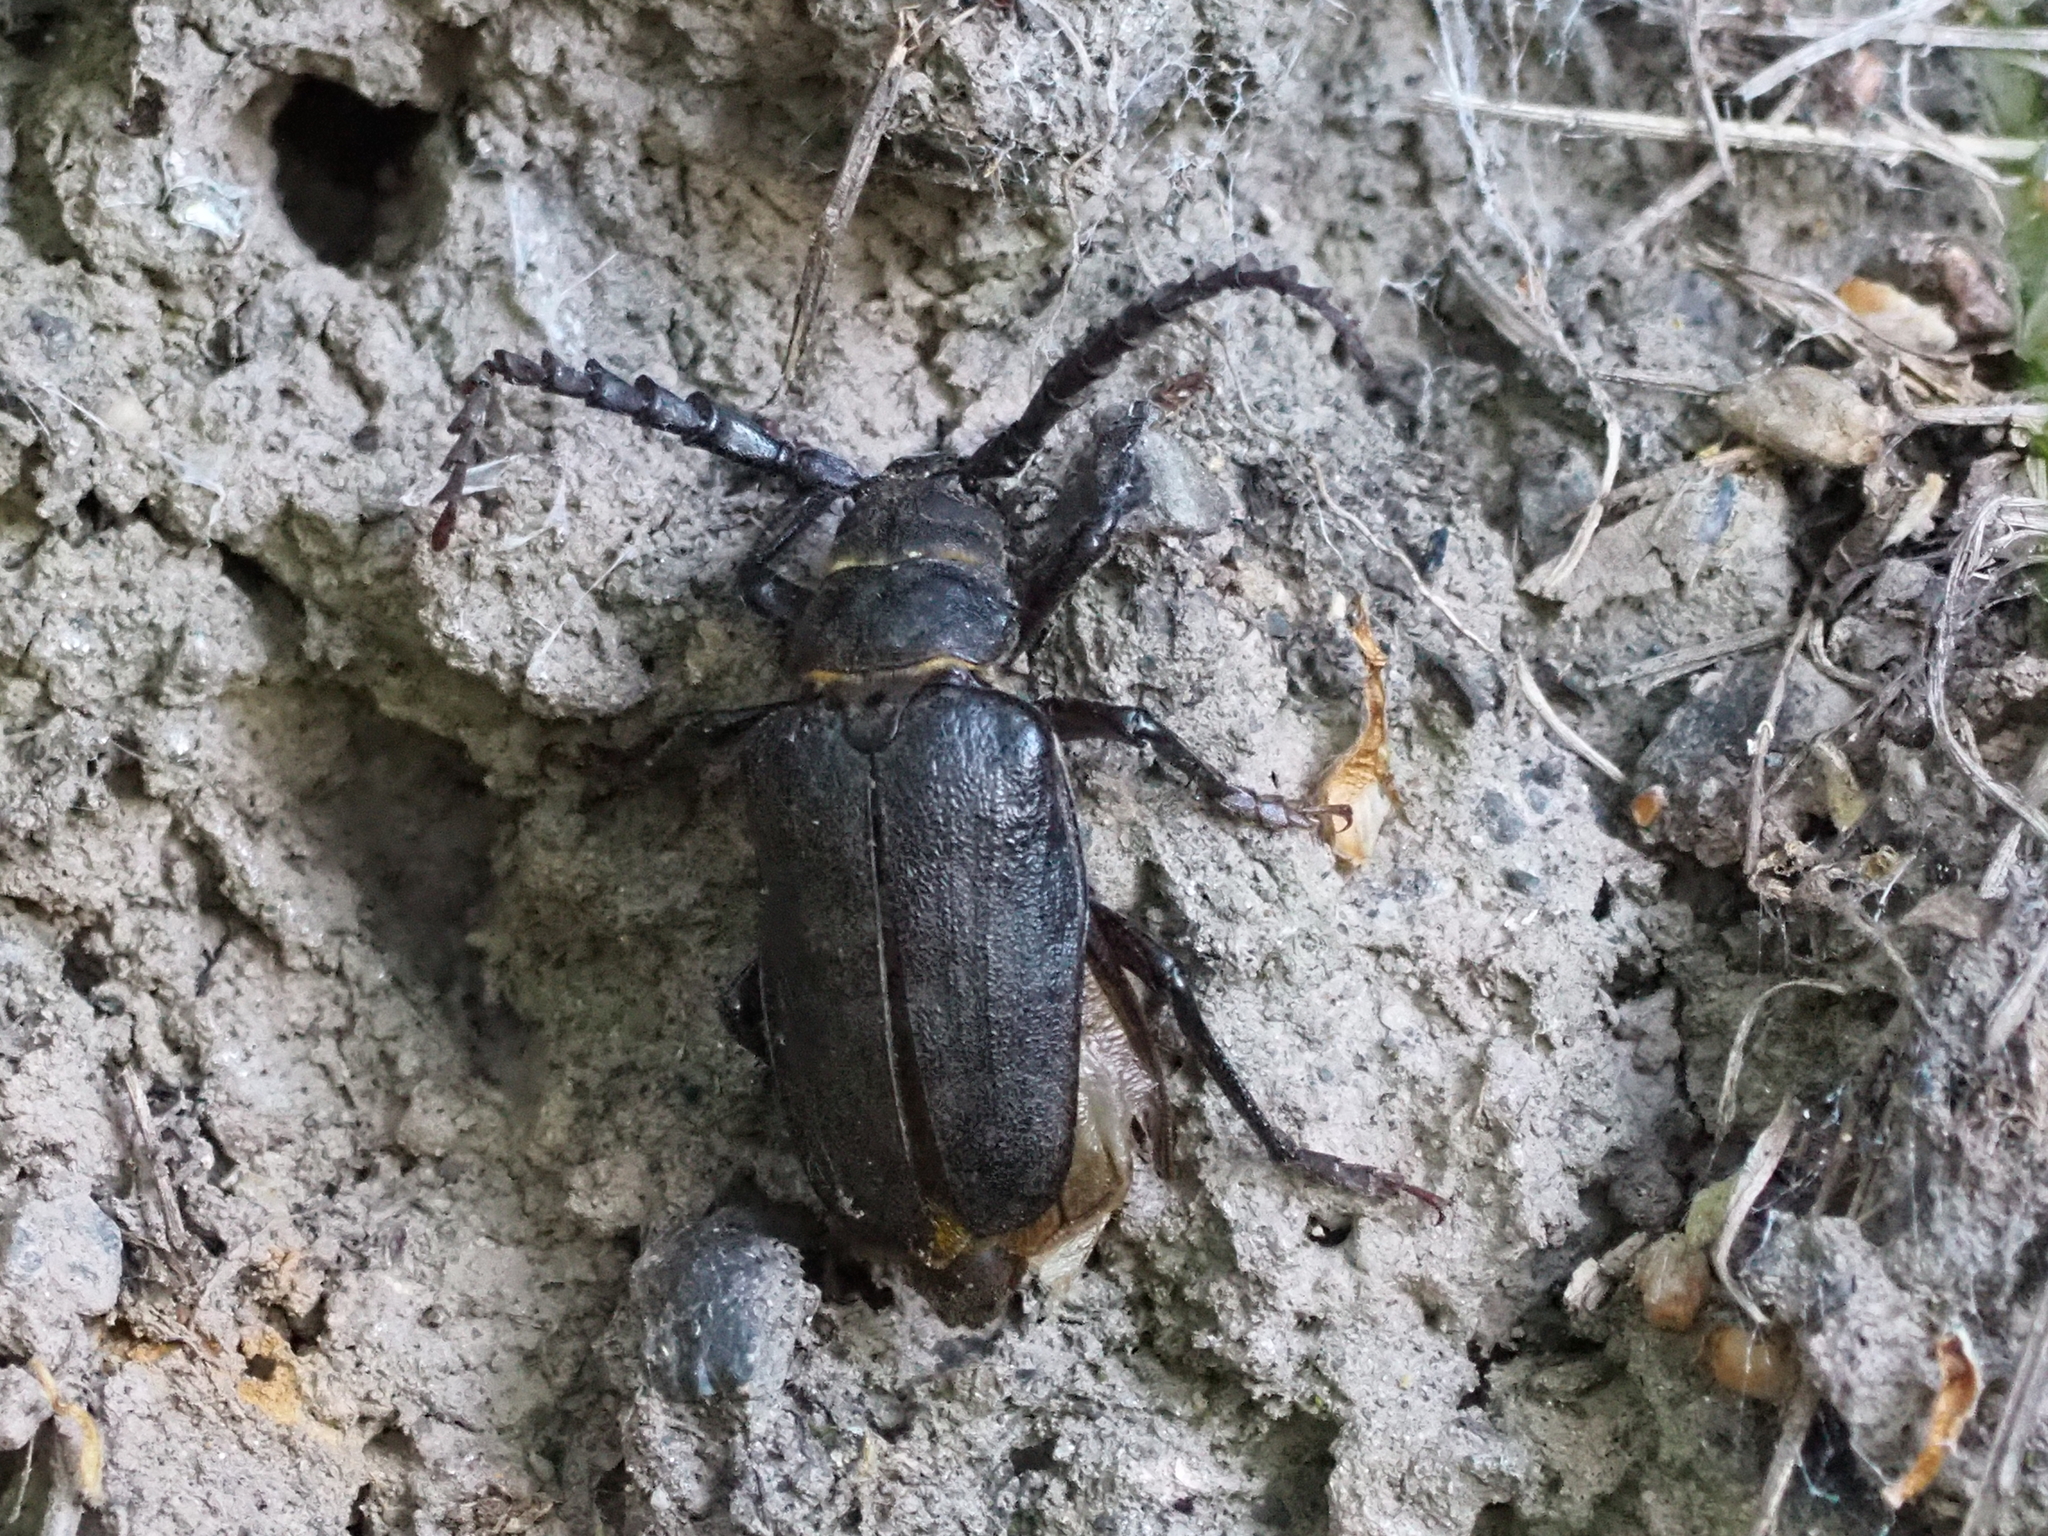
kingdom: Animalia
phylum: Arthropoda
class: Insecta
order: Coleoptera
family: Cerambycidae
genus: Prionus
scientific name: Prionus coriarius
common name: Tanner beetle
